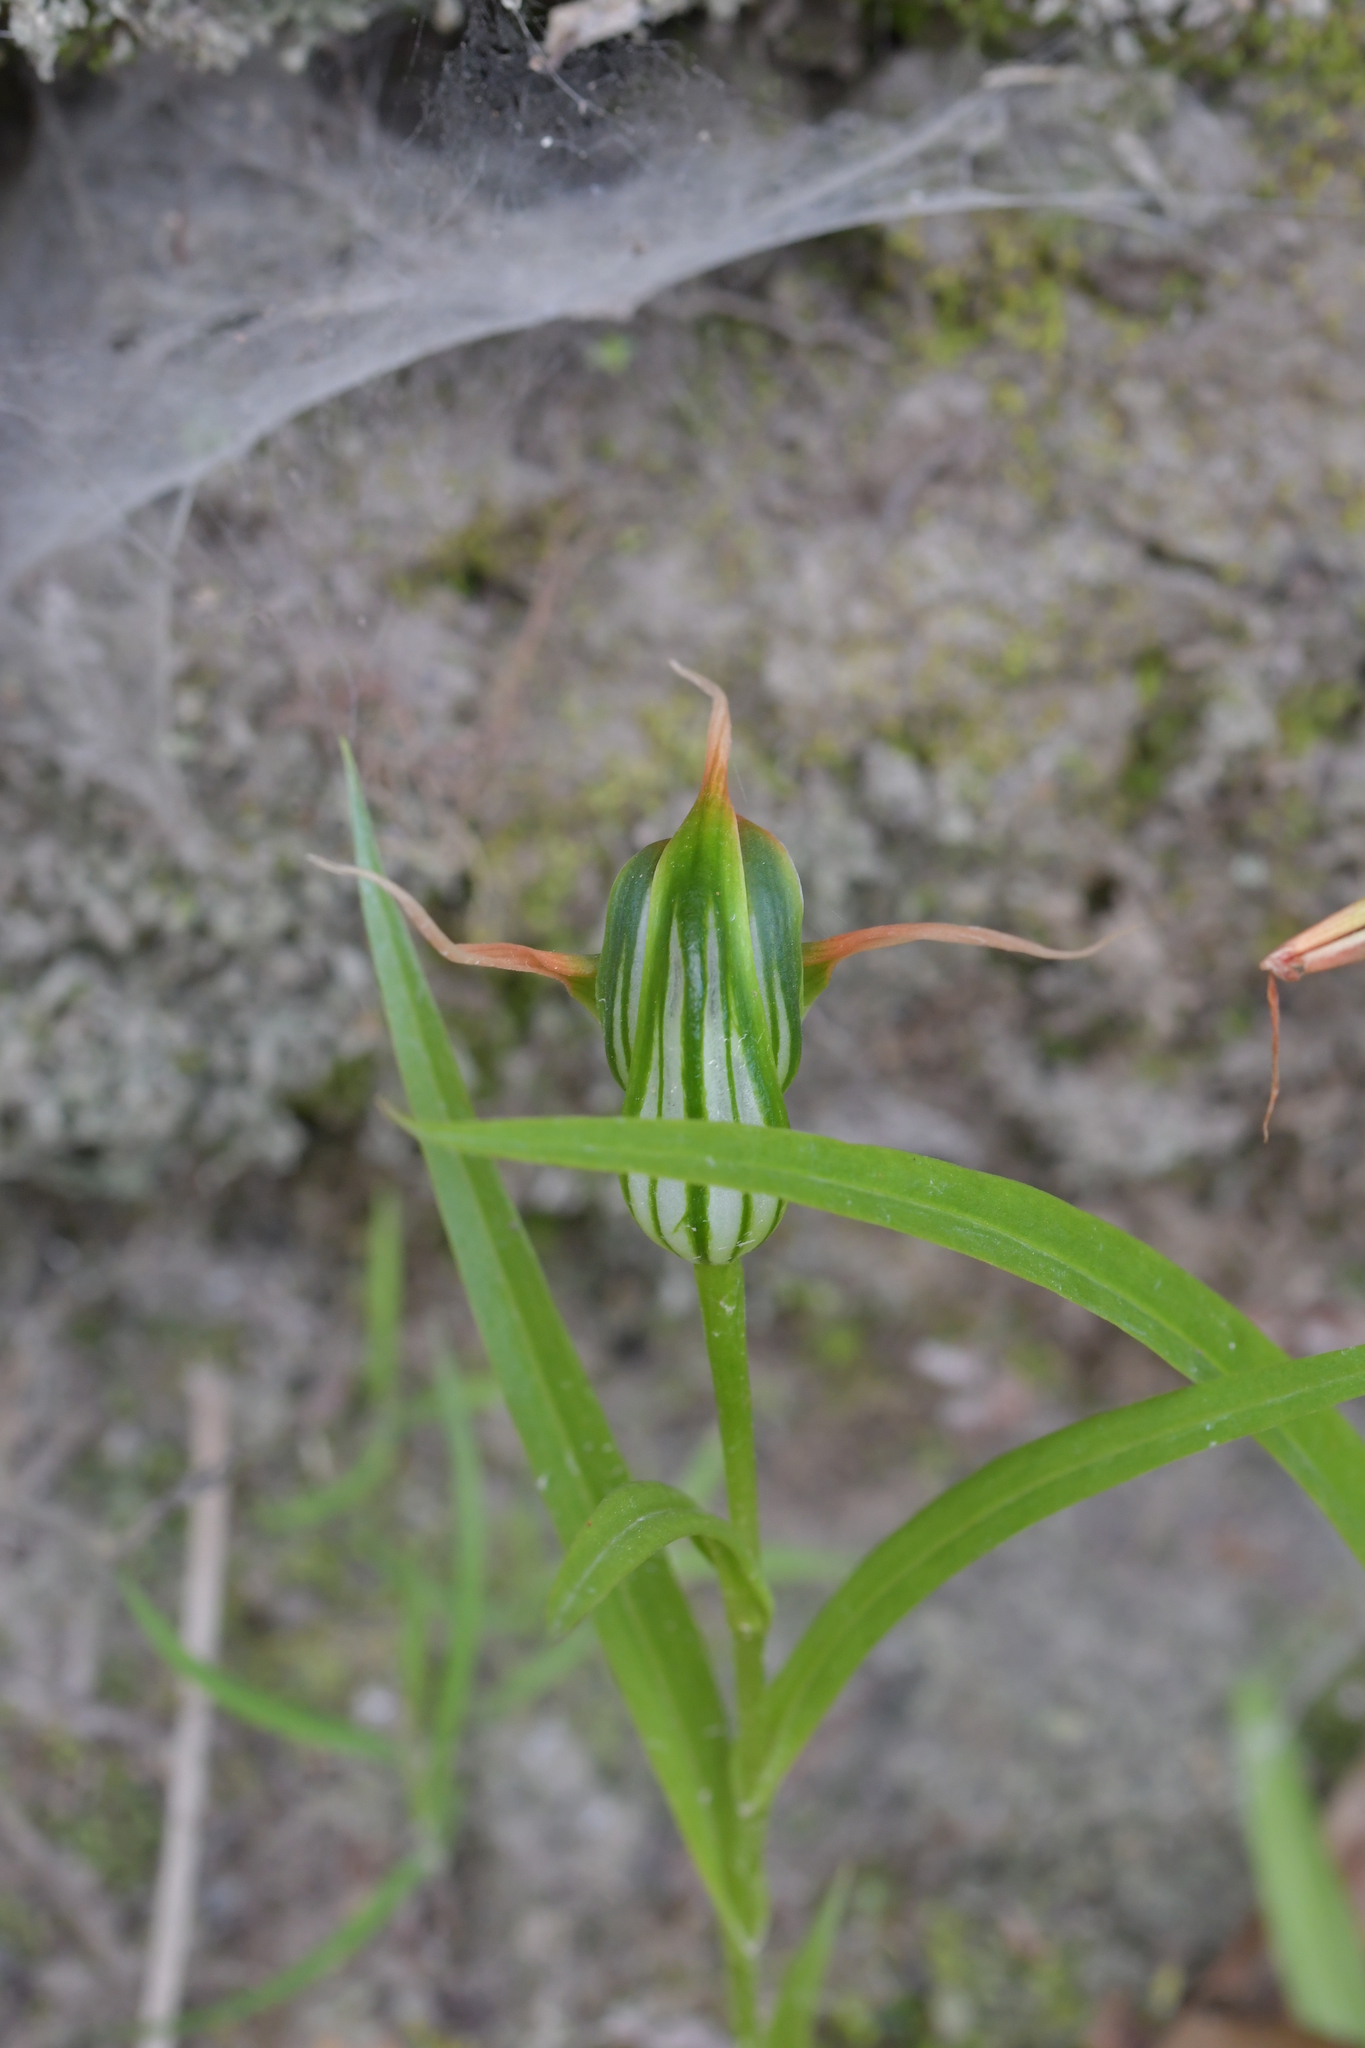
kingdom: Plantae
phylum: Tracheophyta
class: Liliopsida
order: Asparagales
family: Orchidaceae
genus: Pterostylis
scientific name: Pterostylis banksii
